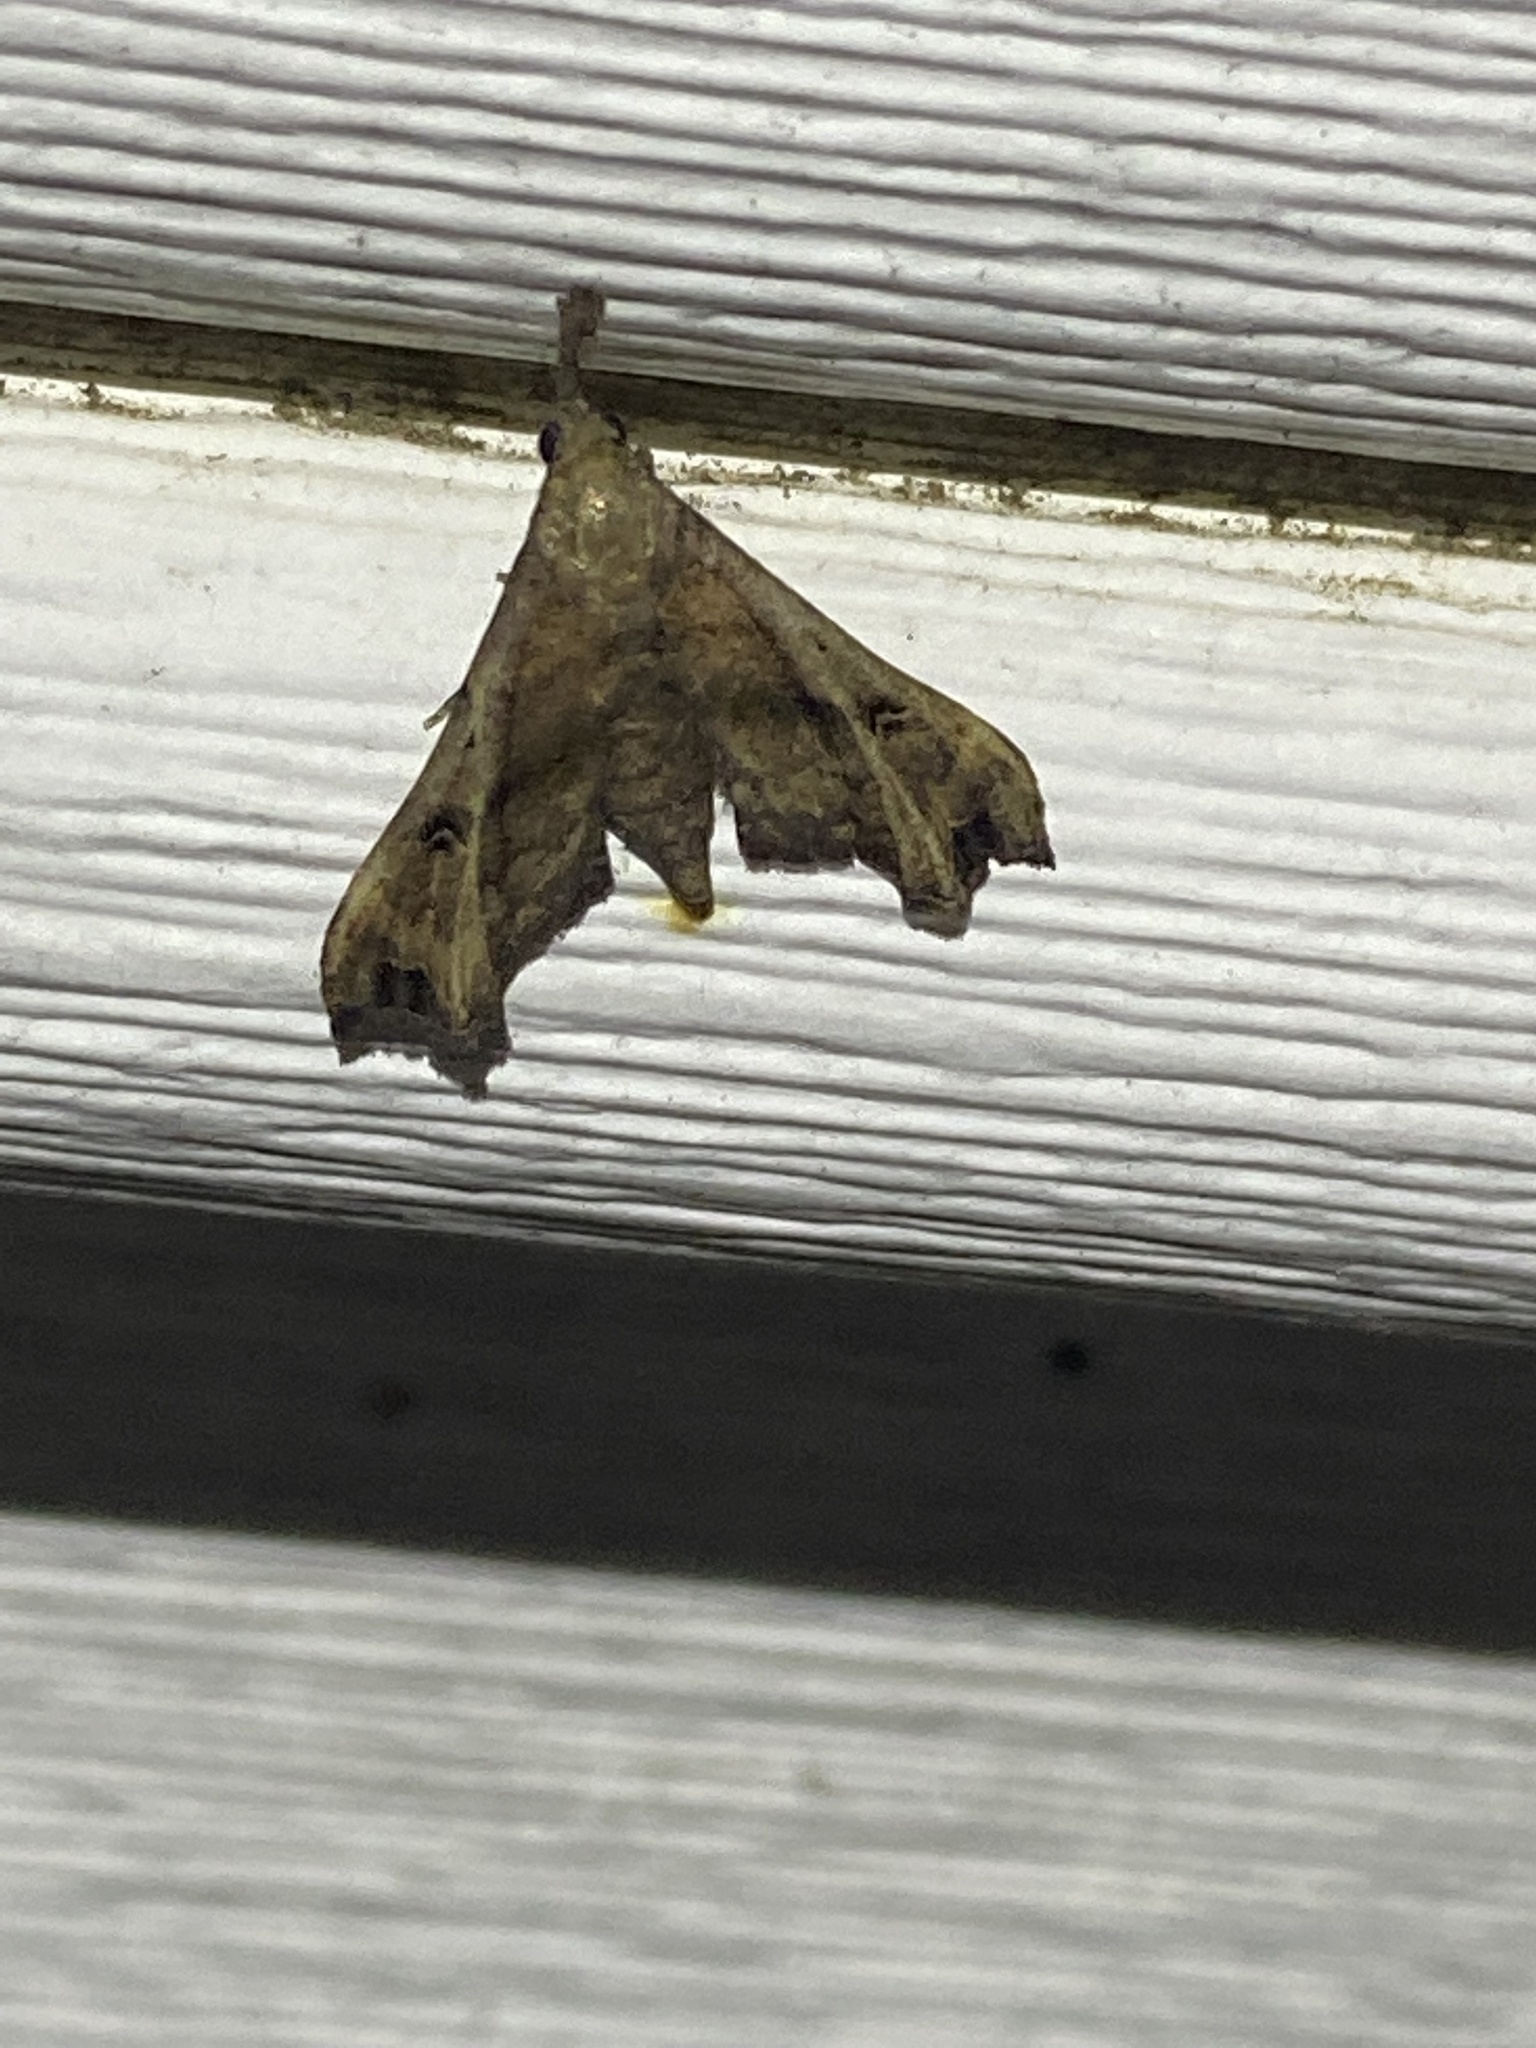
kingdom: Animalia
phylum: Arthropoda
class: Insecta
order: Lepidoptera
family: Erebidae
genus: Palthis
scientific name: Palthis asopialis
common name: Faint-spotted palthis moth
